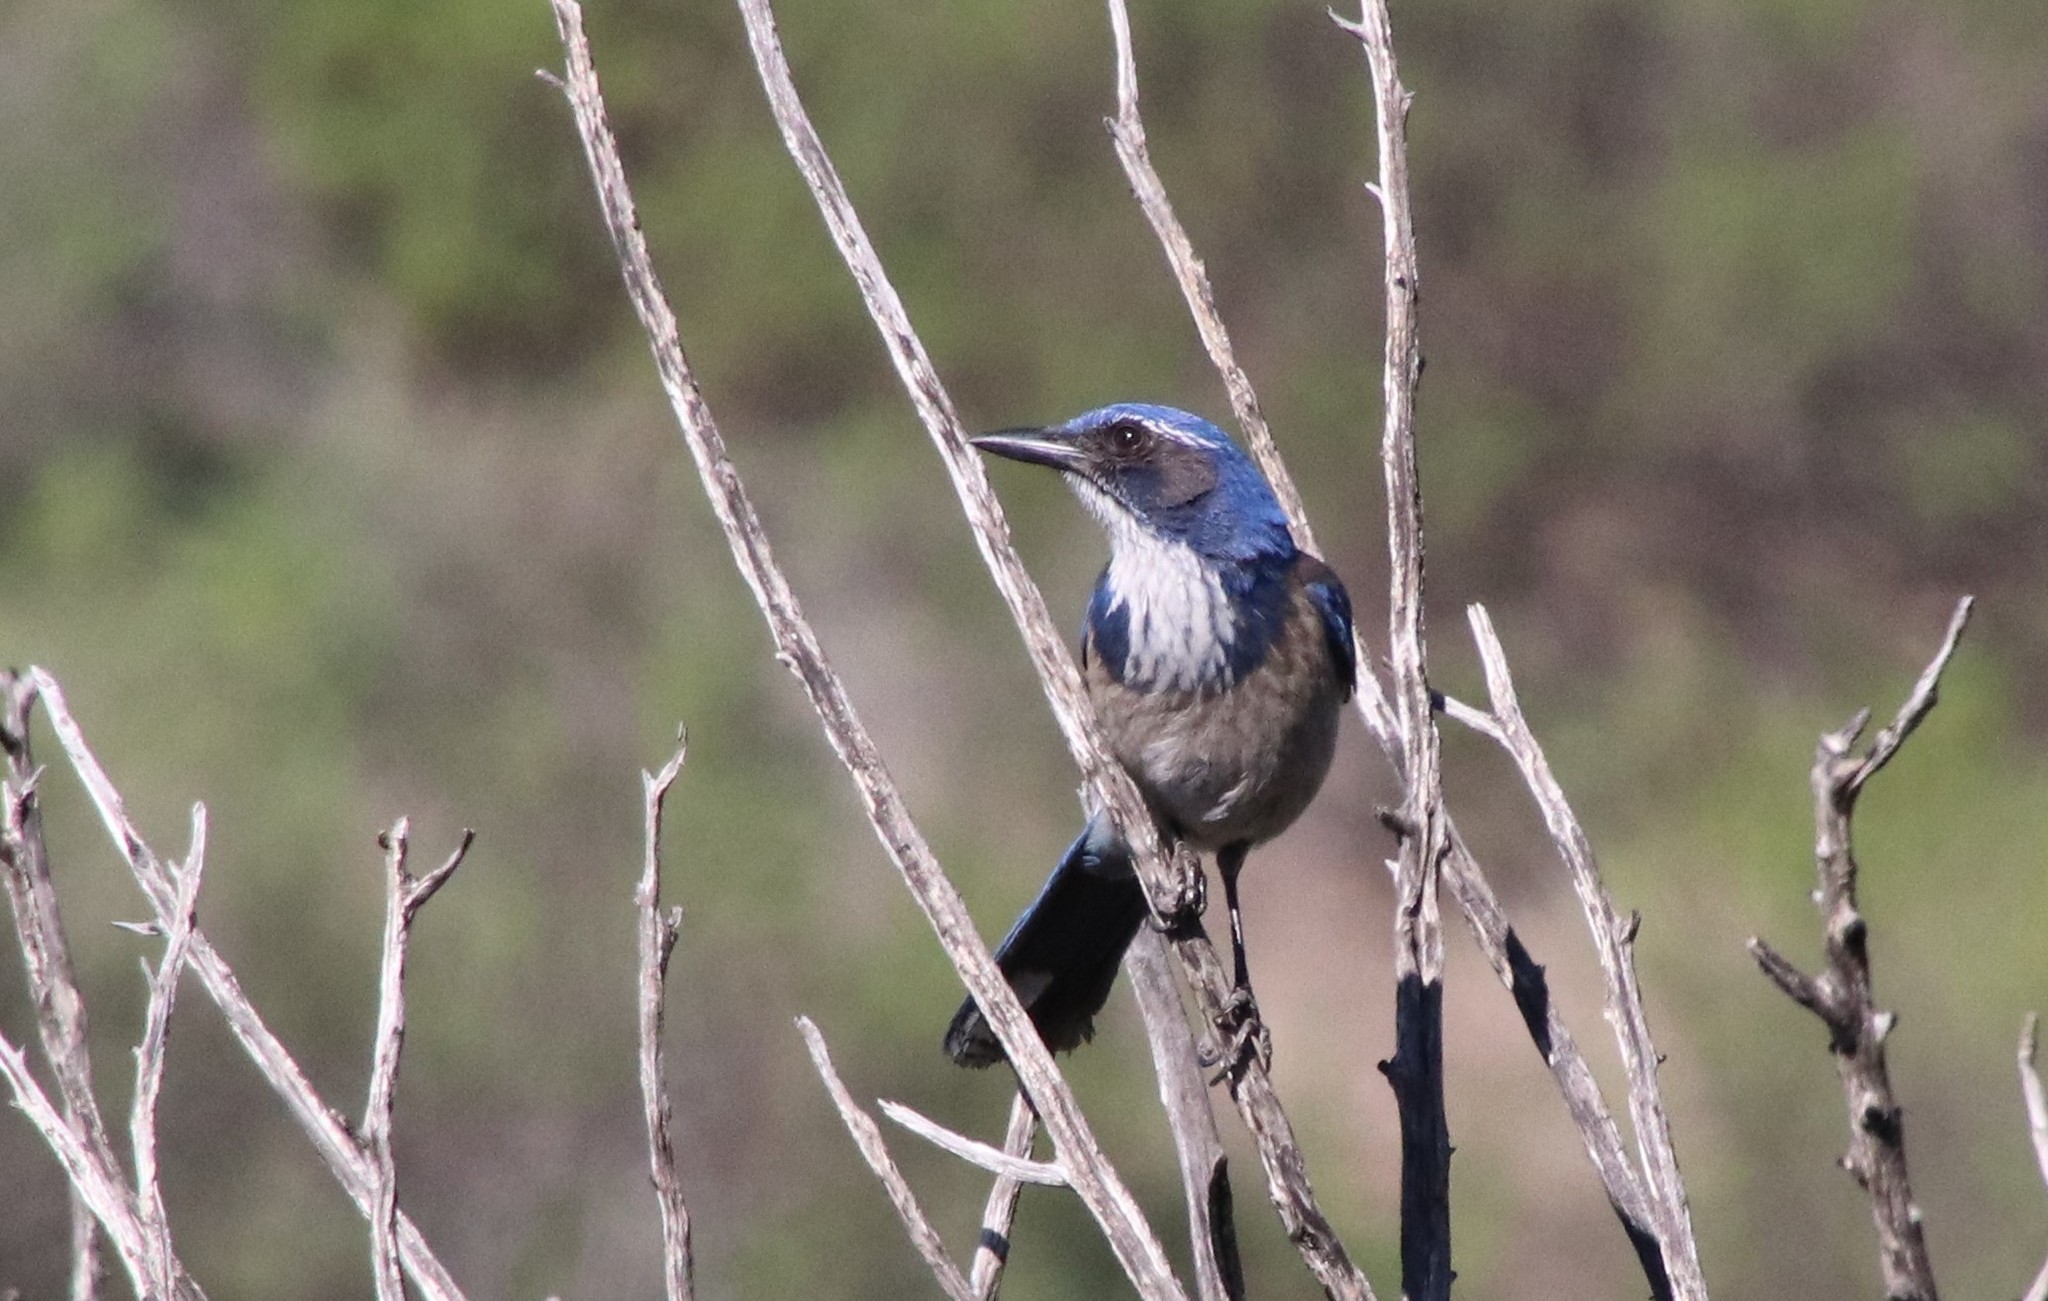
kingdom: Animalia
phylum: Chordata
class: Aves
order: Passeriformes
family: Corvidae
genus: Aphelocoma
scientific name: Aphelocoma californica
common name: California scrub-jay
